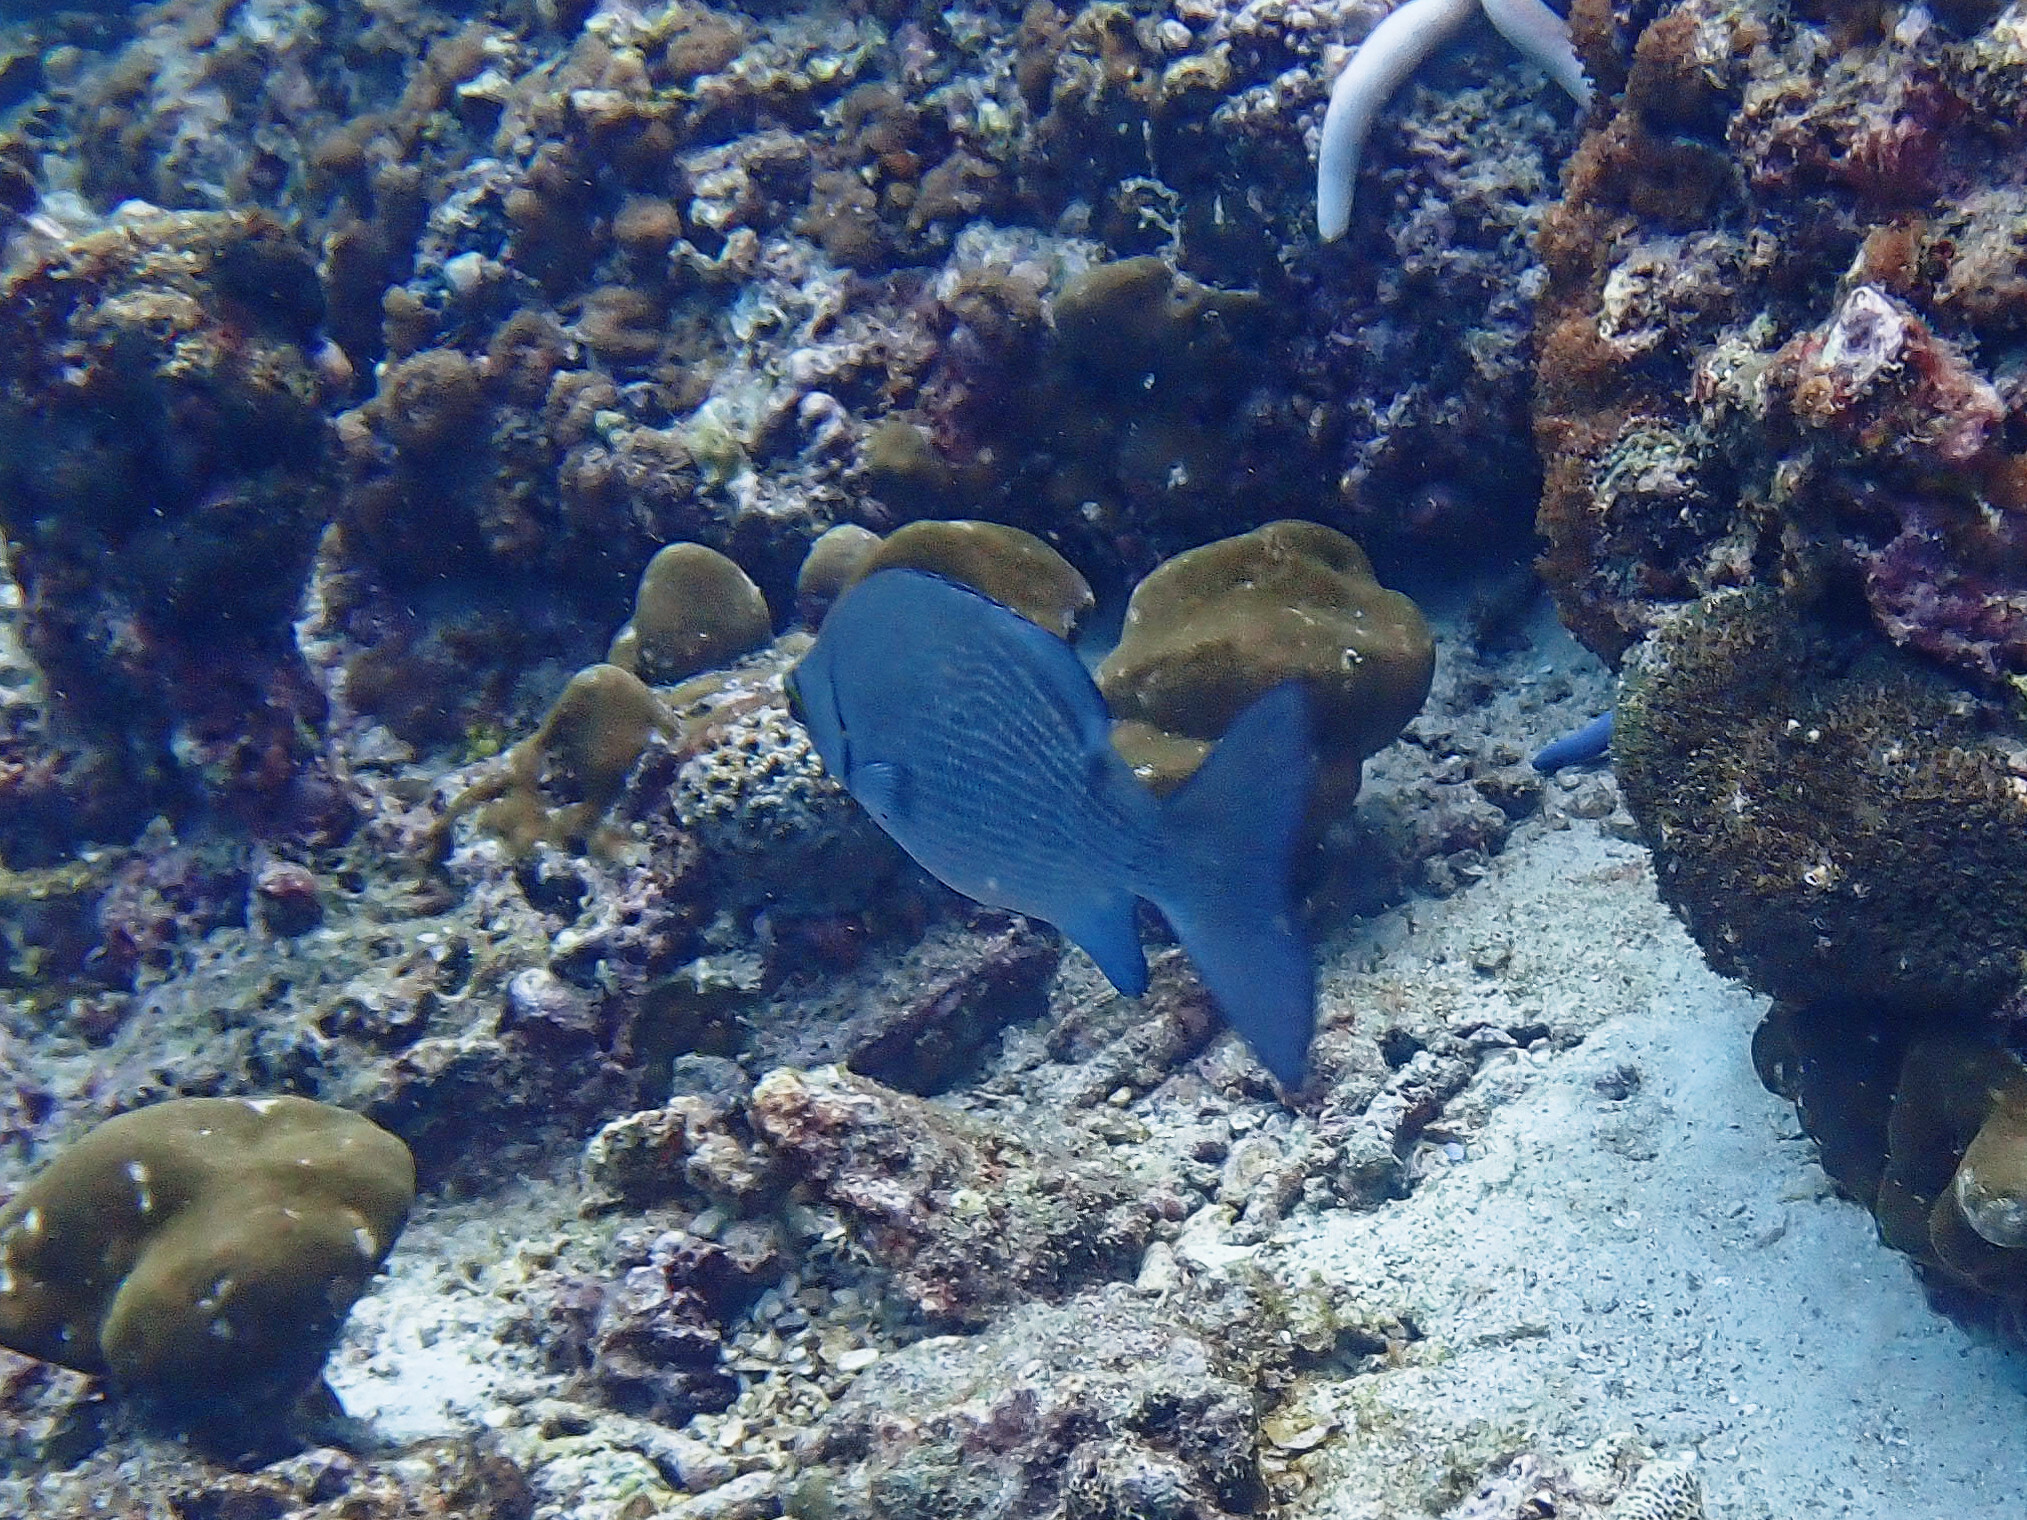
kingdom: Animalia
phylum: Chordata
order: Perciformes
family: Kyphosidae
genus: Kyphosus
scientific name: Kyphosus cinerascens
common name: Topsail drummer
